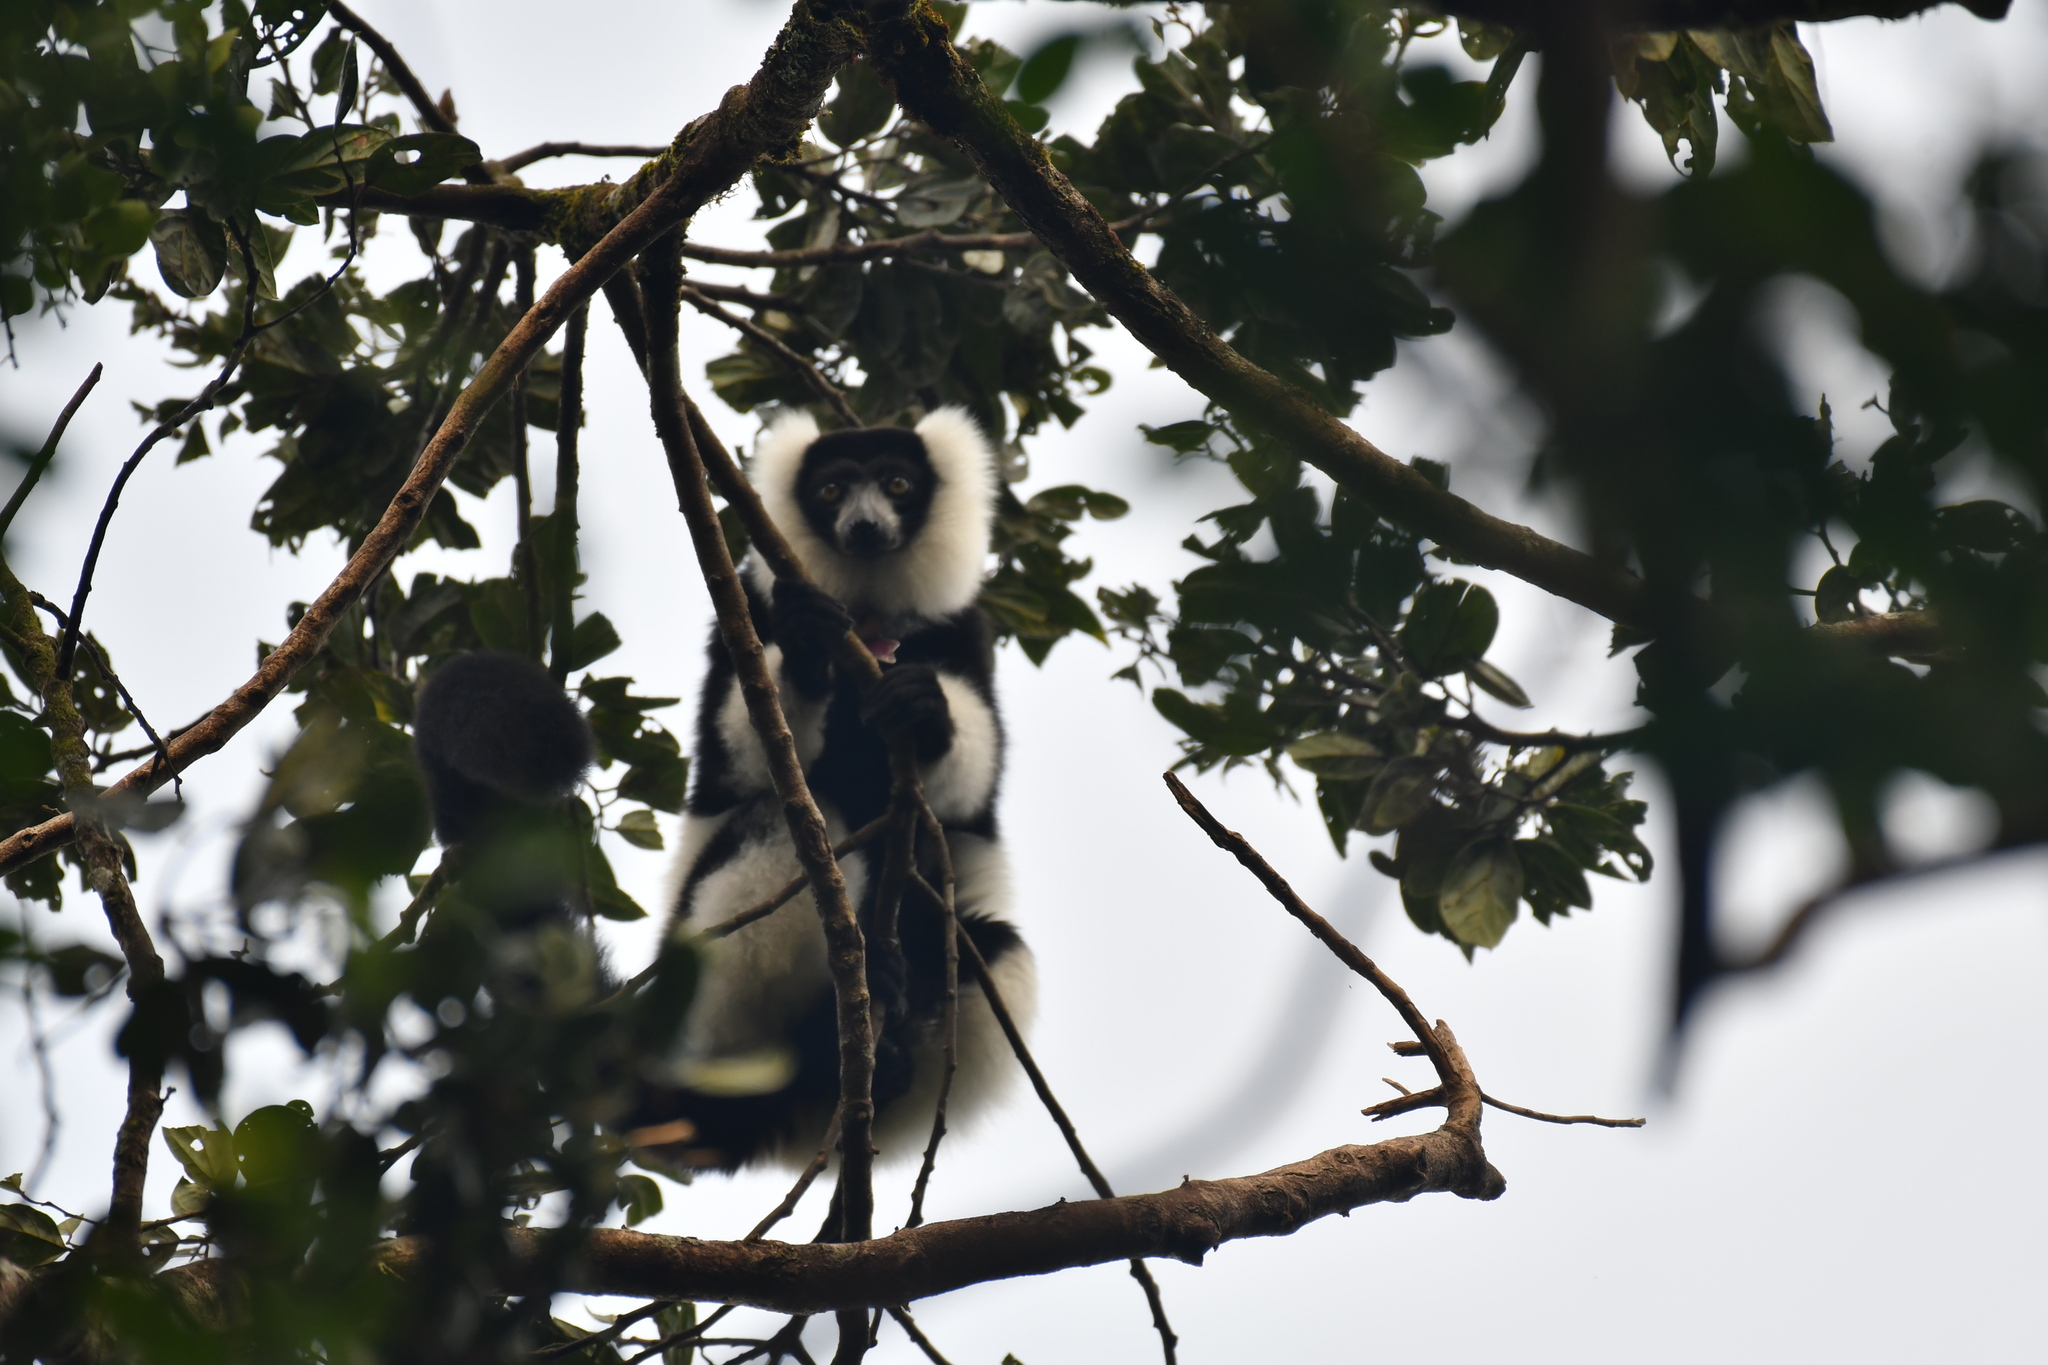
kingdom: Animalia
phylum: Chordata
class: Mammalia
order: Primates
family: Lemuridae
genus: Varecia
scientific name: Varecia variegata
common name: Black-and-white ruffed lemur
